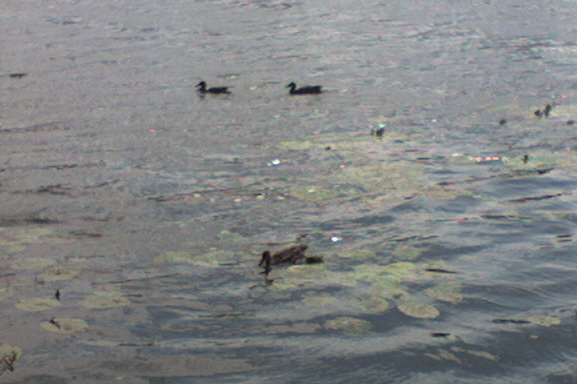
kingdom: Animalia
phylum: Chordata
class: Aves
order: Anseriformes
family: Anatidae
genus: Anas
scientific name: Anas platyrhynchos
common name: Mallard
